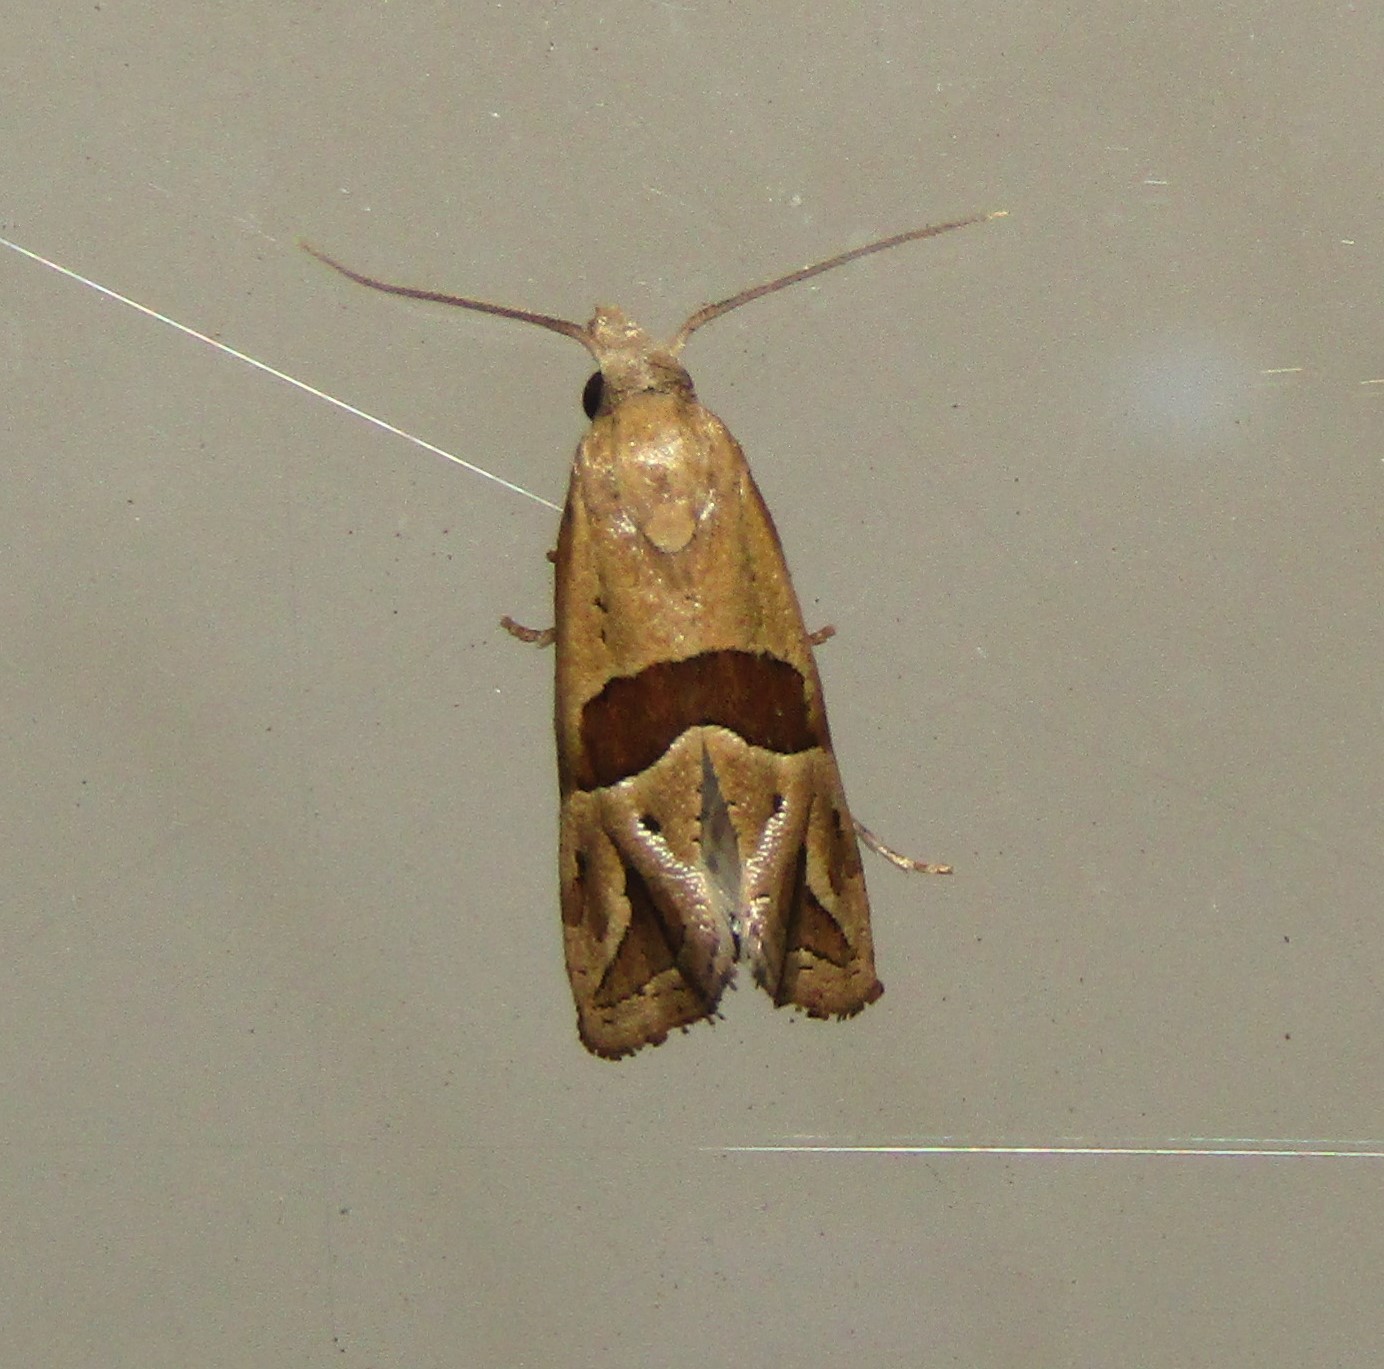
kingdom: Animalia
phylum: Arthropoda
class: Insecta
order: Lepidoptera
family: Tortricidae
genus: Eugnosta
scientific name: Eugnosta sartana
